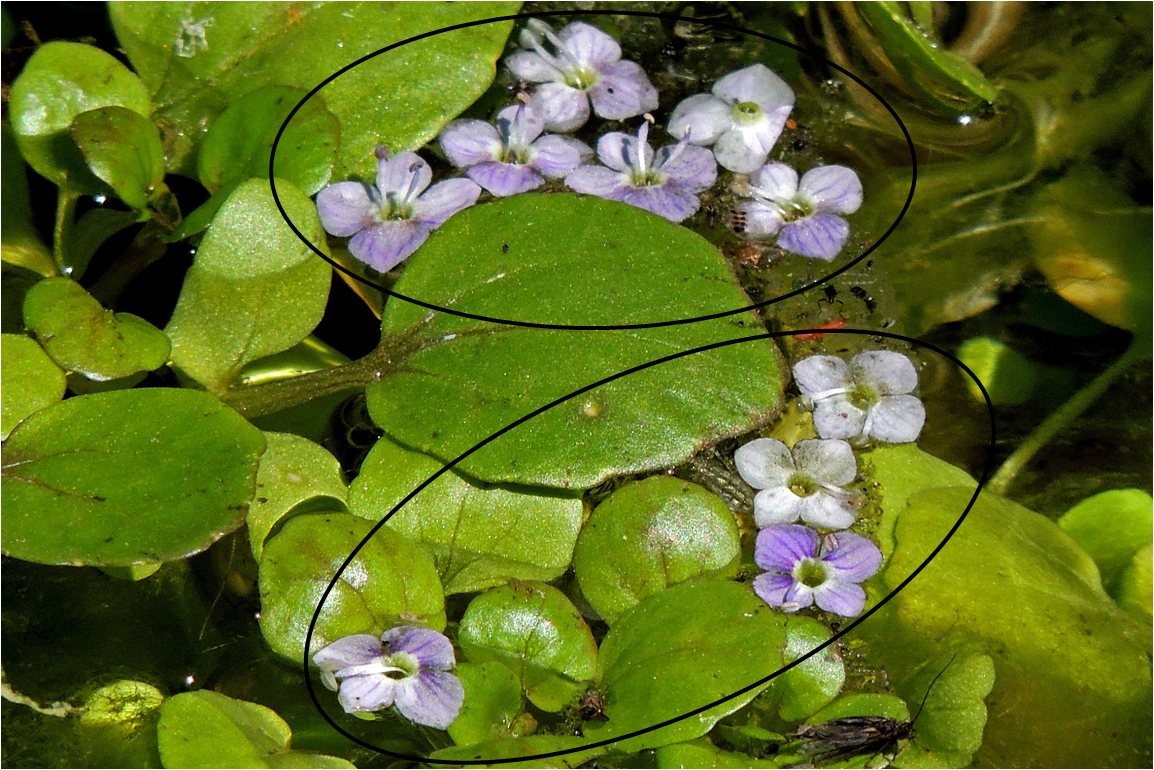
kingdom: Plantae
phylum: Tracheophyta
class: Magnoliopsida
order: Lamiales
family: Plantaginaceae
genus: Veronica
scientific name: Veronica anagallis-aquatica
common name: Water speedwell
